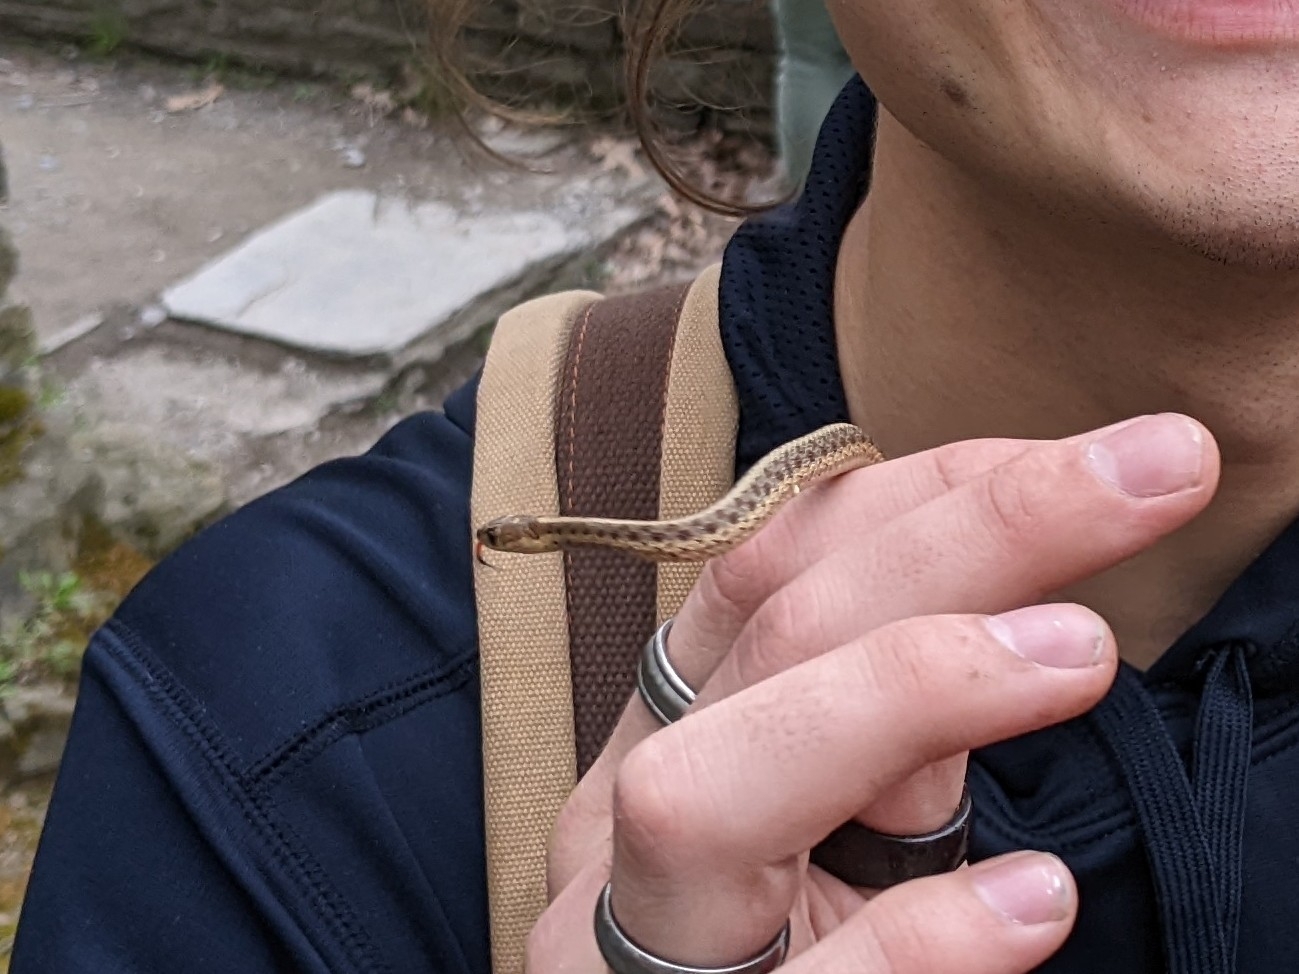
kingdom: Animalia
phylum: Chordata
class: Squamata
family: Colubridae
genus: Thamnophis
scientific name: Thamnophis sirtalis
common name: Common garter snake
